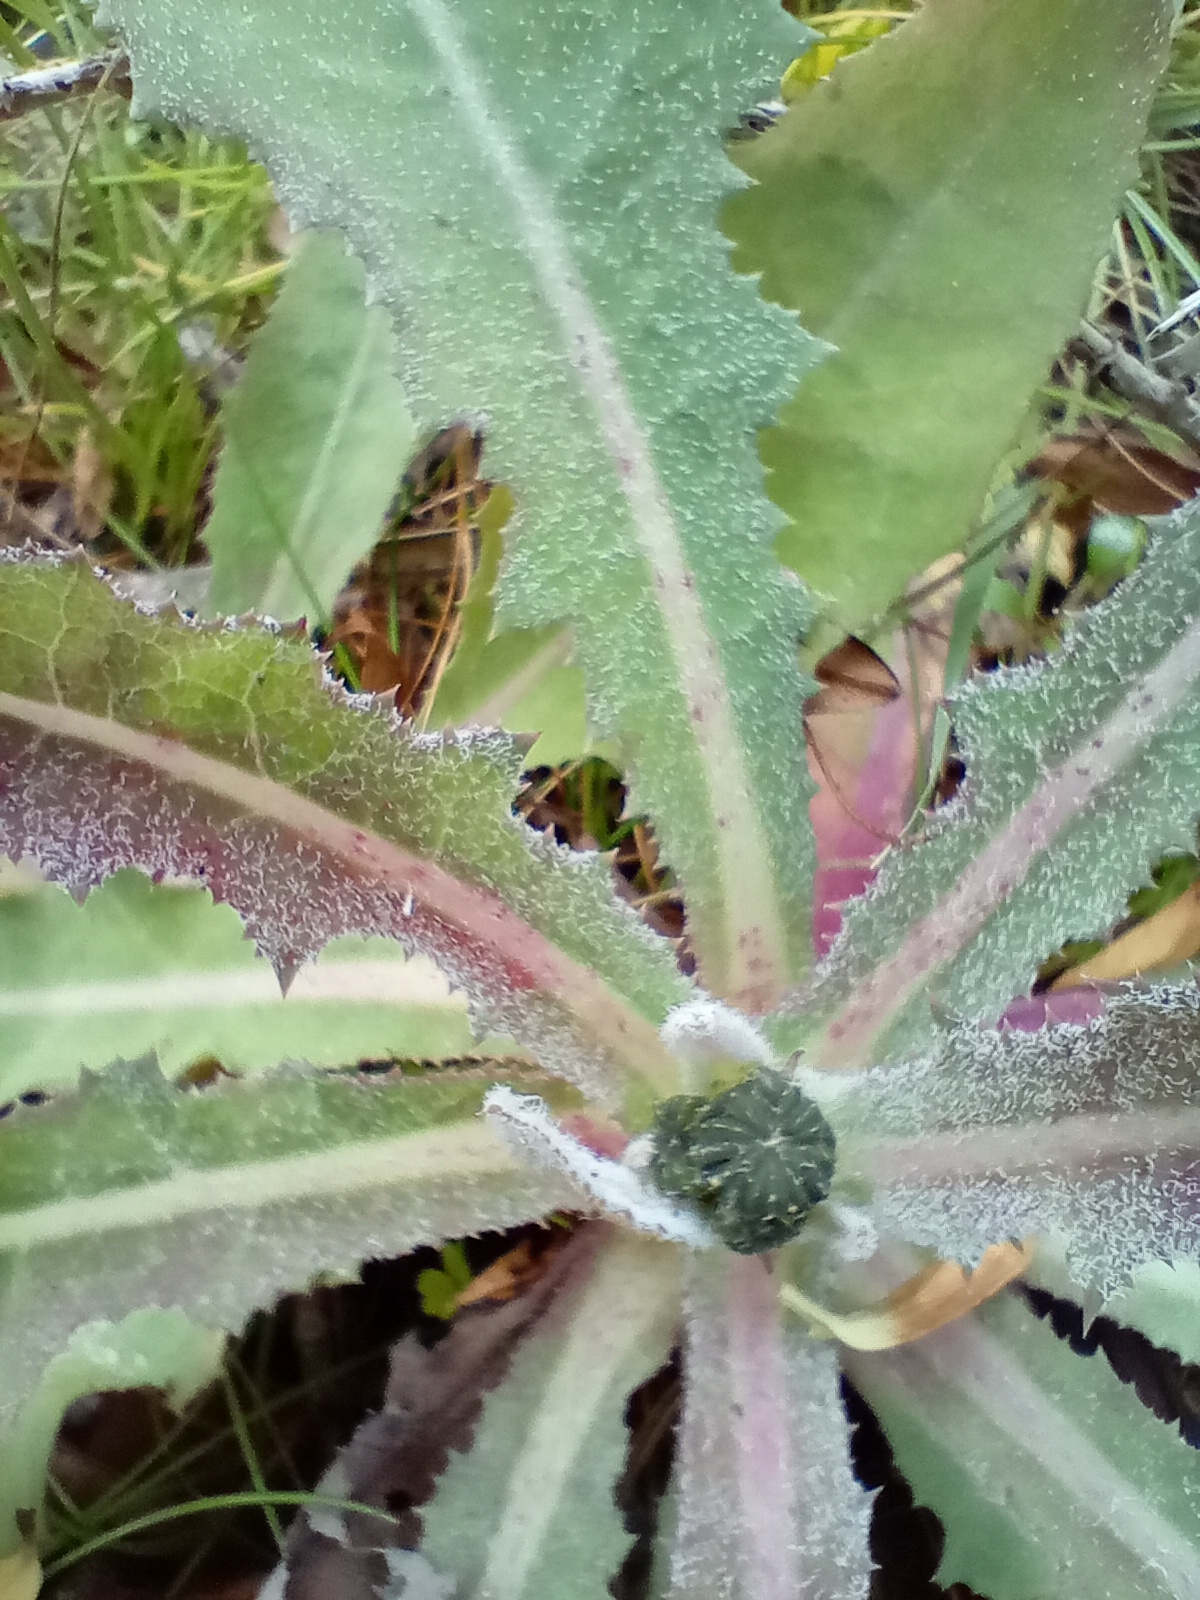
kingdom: Plantae
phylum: Tracheophyta
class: Magnoliopsida
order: Asterales
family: Asteraceae
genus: Sonchus
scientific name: Sonchus kirkii
